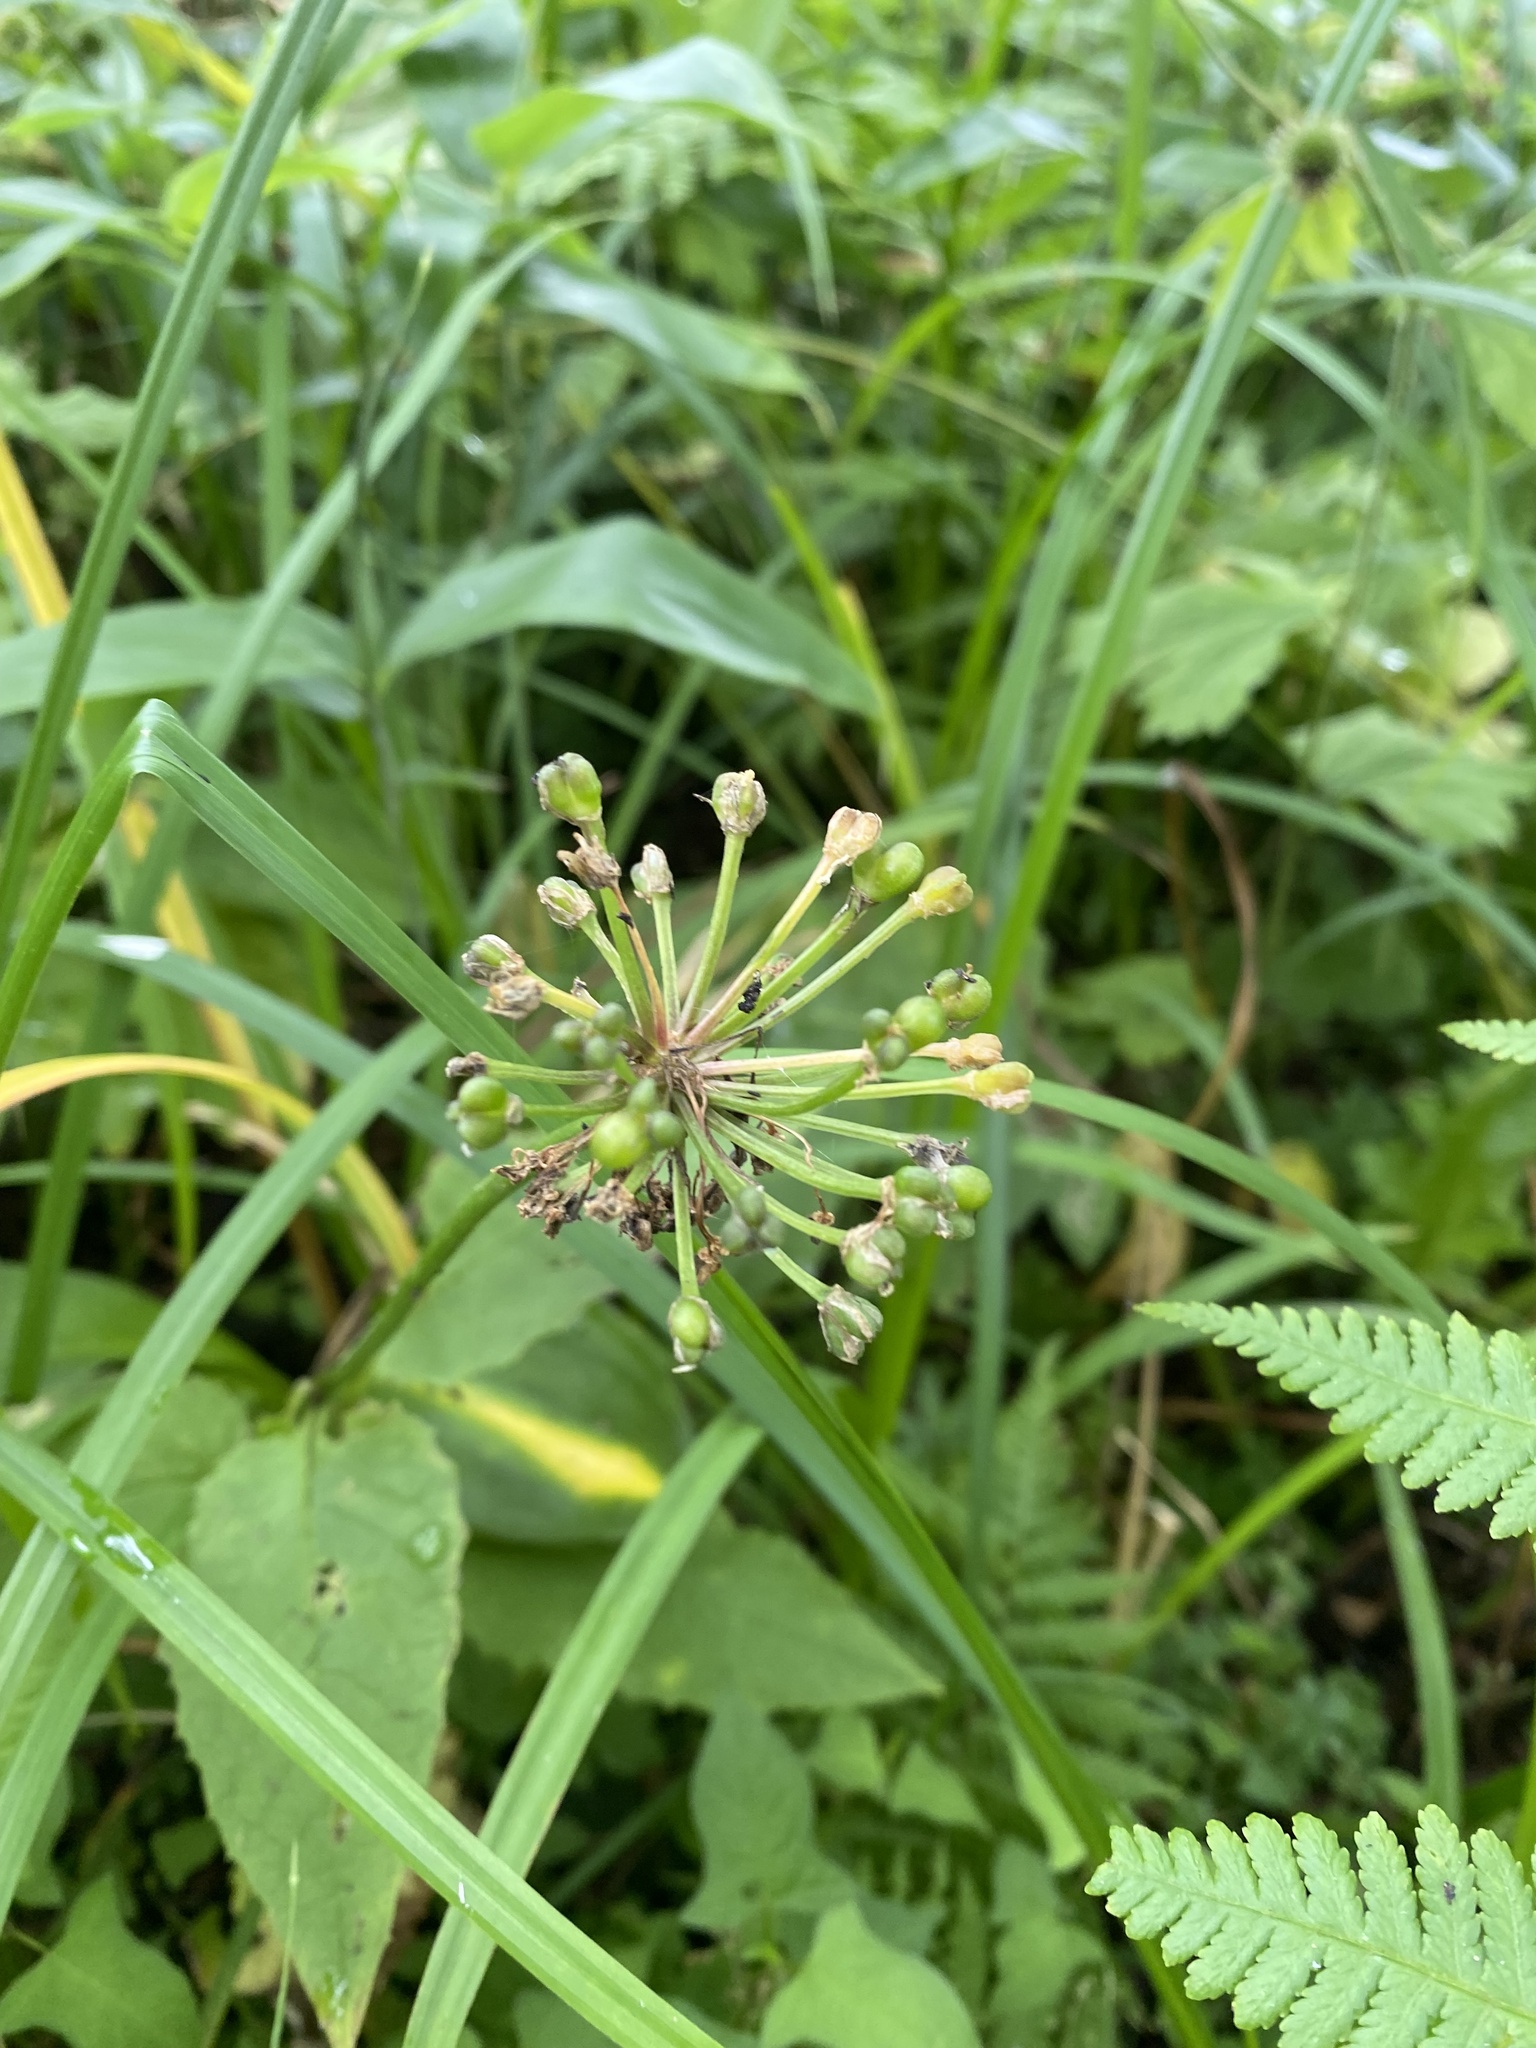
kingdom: Plantae
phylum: Tracheophyta
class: Liliopsida
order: Asparagales
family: Amaryllidaceae
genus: Allium
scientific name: Allium ochotense
